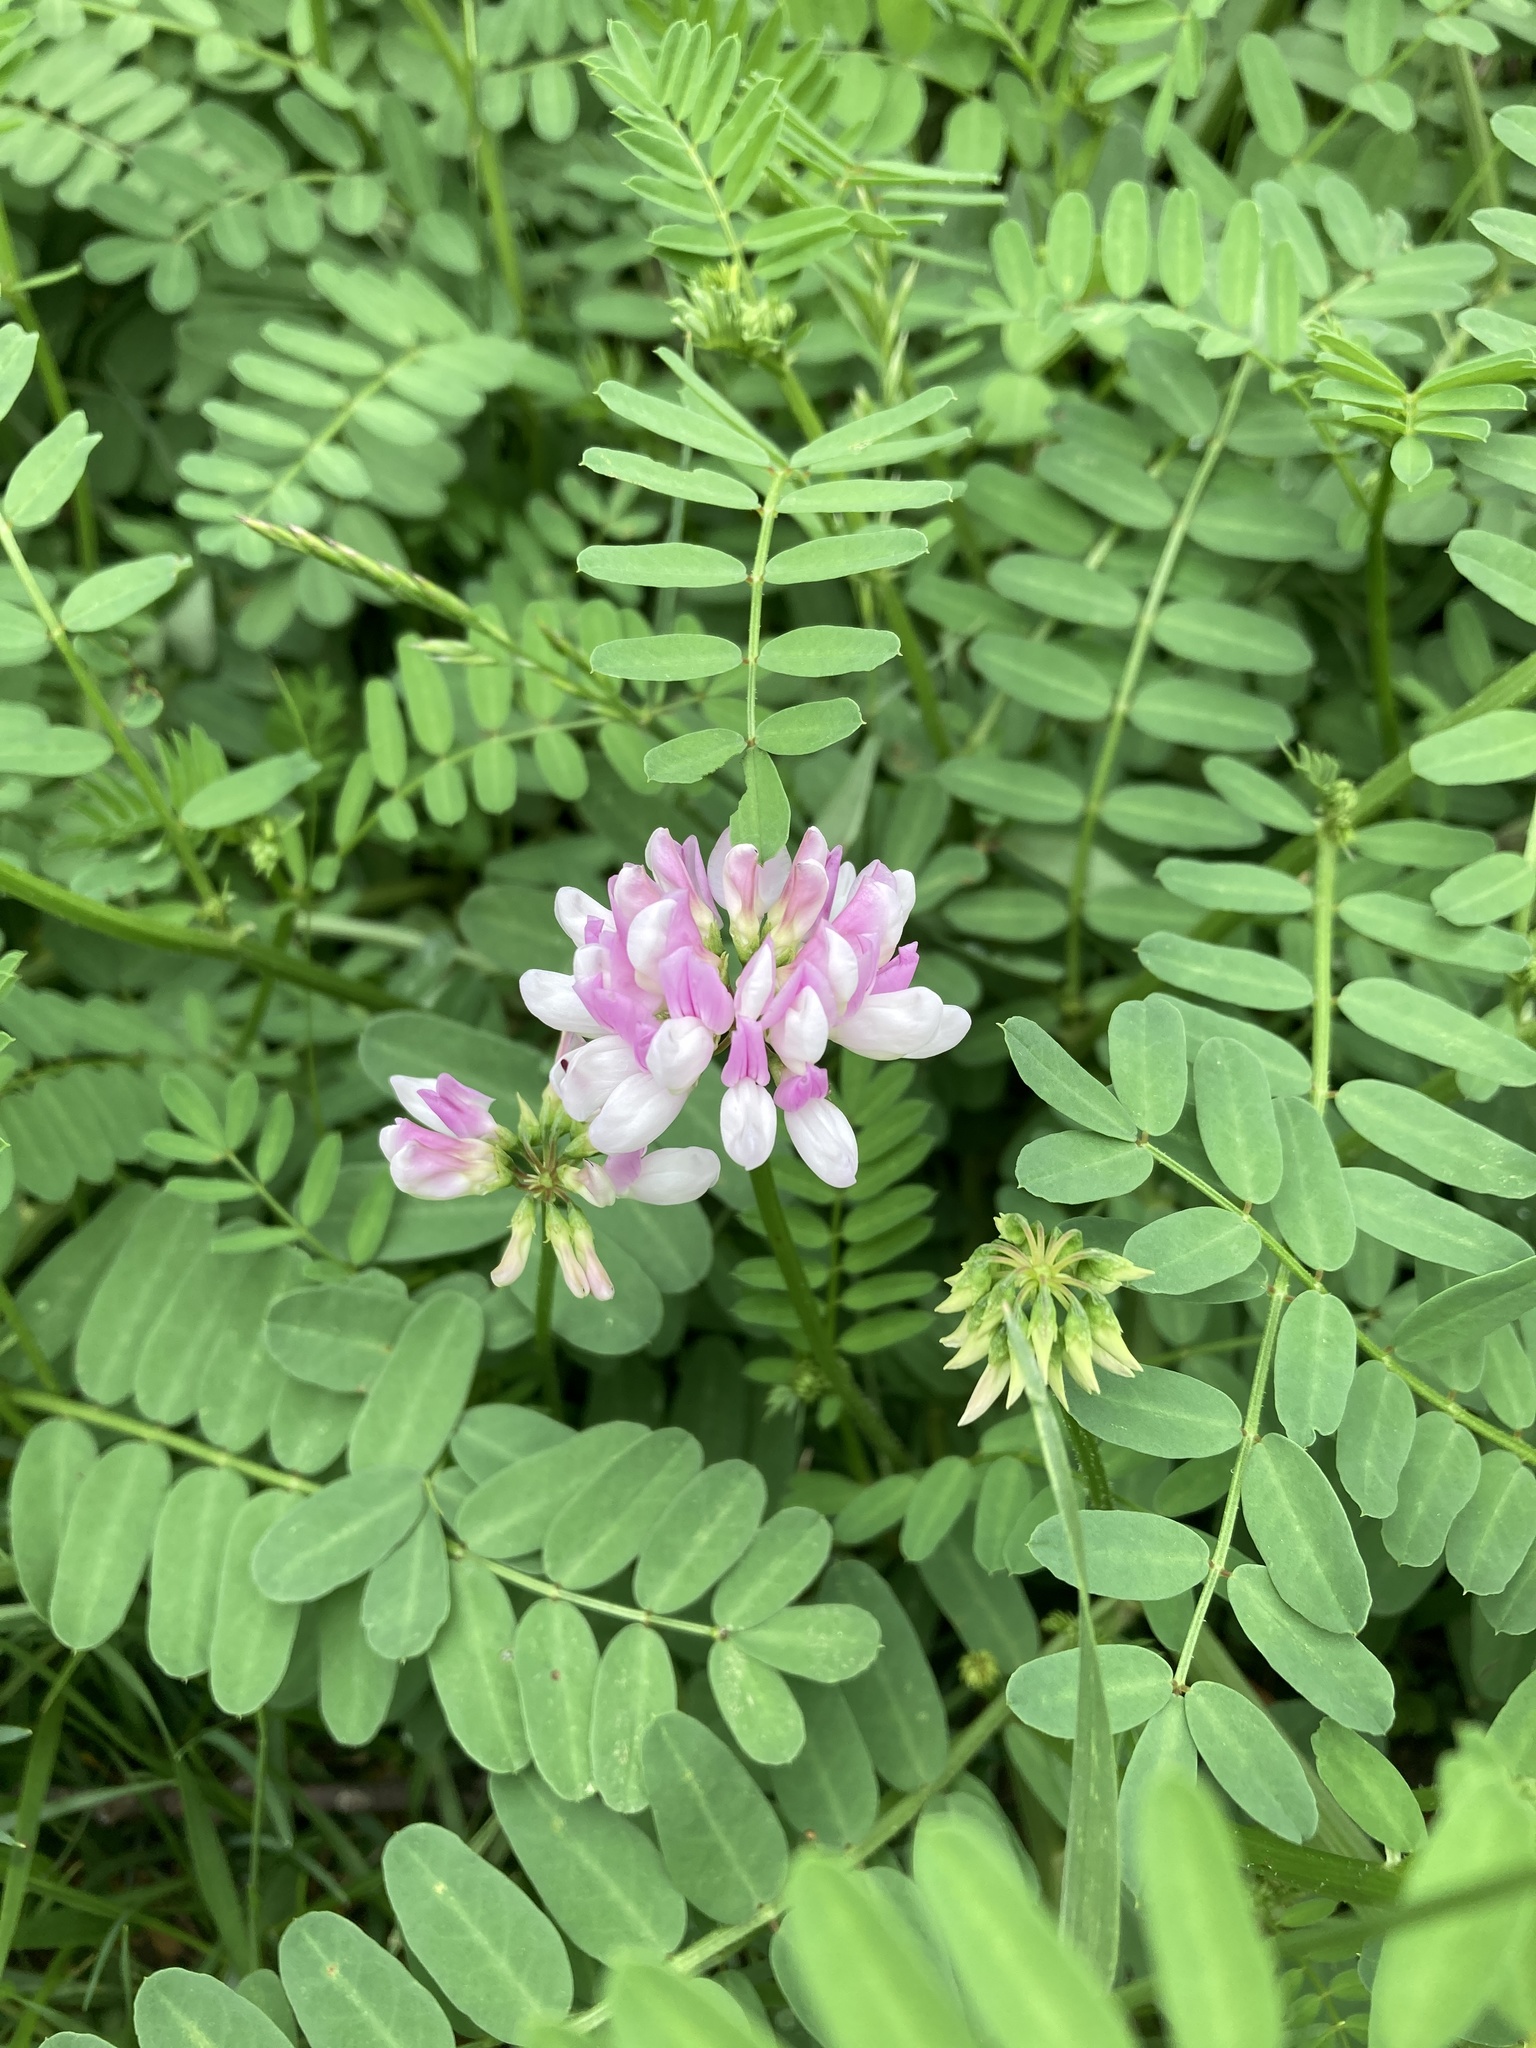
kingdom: Plantae
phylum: Tracheophyta
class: Magnoliopsida
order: Fabales
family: Fabaceae
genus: Coronilla
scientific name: Coronilla varia
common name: Crownvetch
